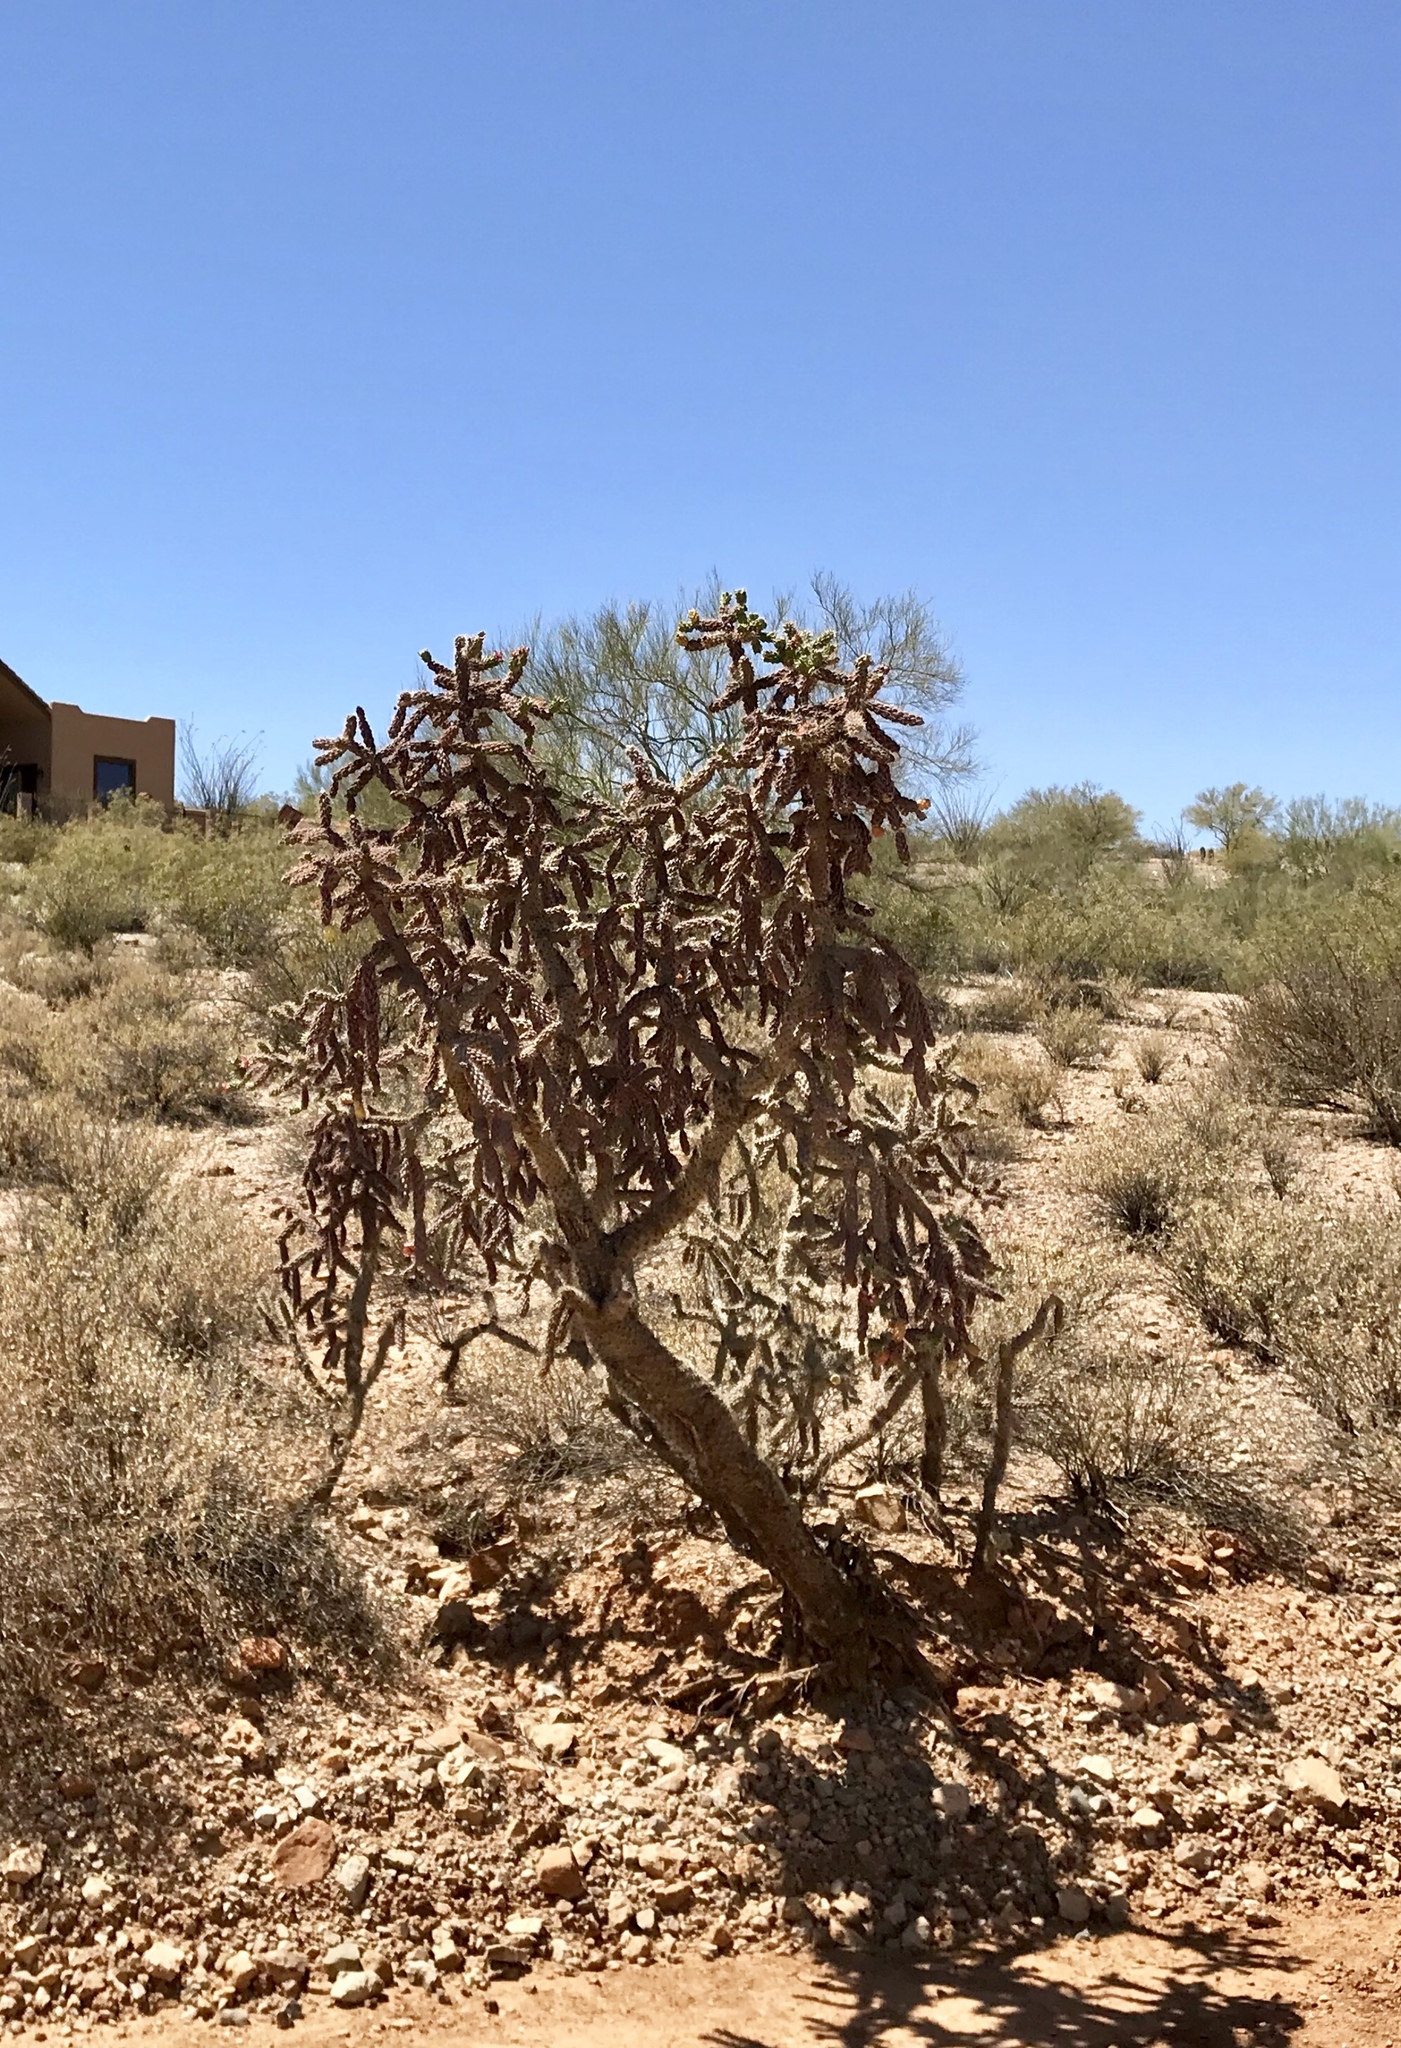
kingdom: Plantae
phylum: Tracheophyta
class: Magnoliopsida
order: Caryophyllales
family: Cactaceae
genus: Cylindropuntia
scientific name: Cylindropuntia thurberi
